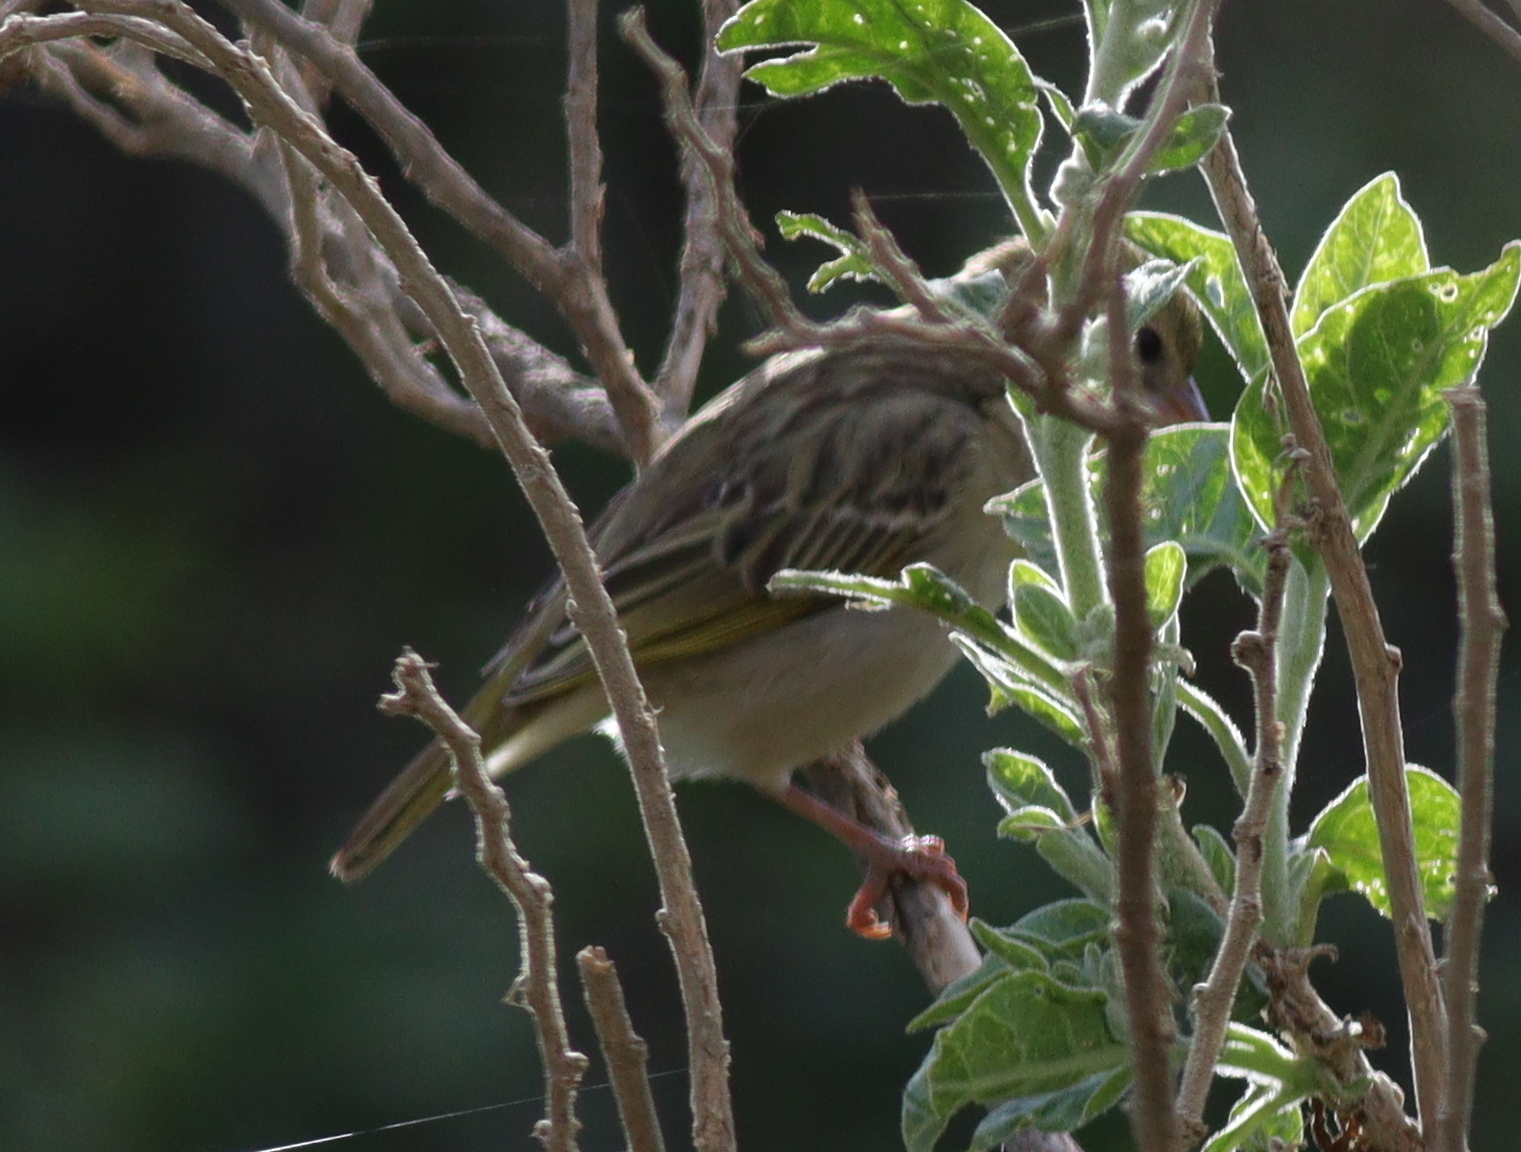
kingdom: Animalia
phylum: Chordata
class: Aves
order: Passeriformes
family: Ploceidae
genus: Ploceus
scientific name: Ploceus galbula
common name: Rüppell's weaver
